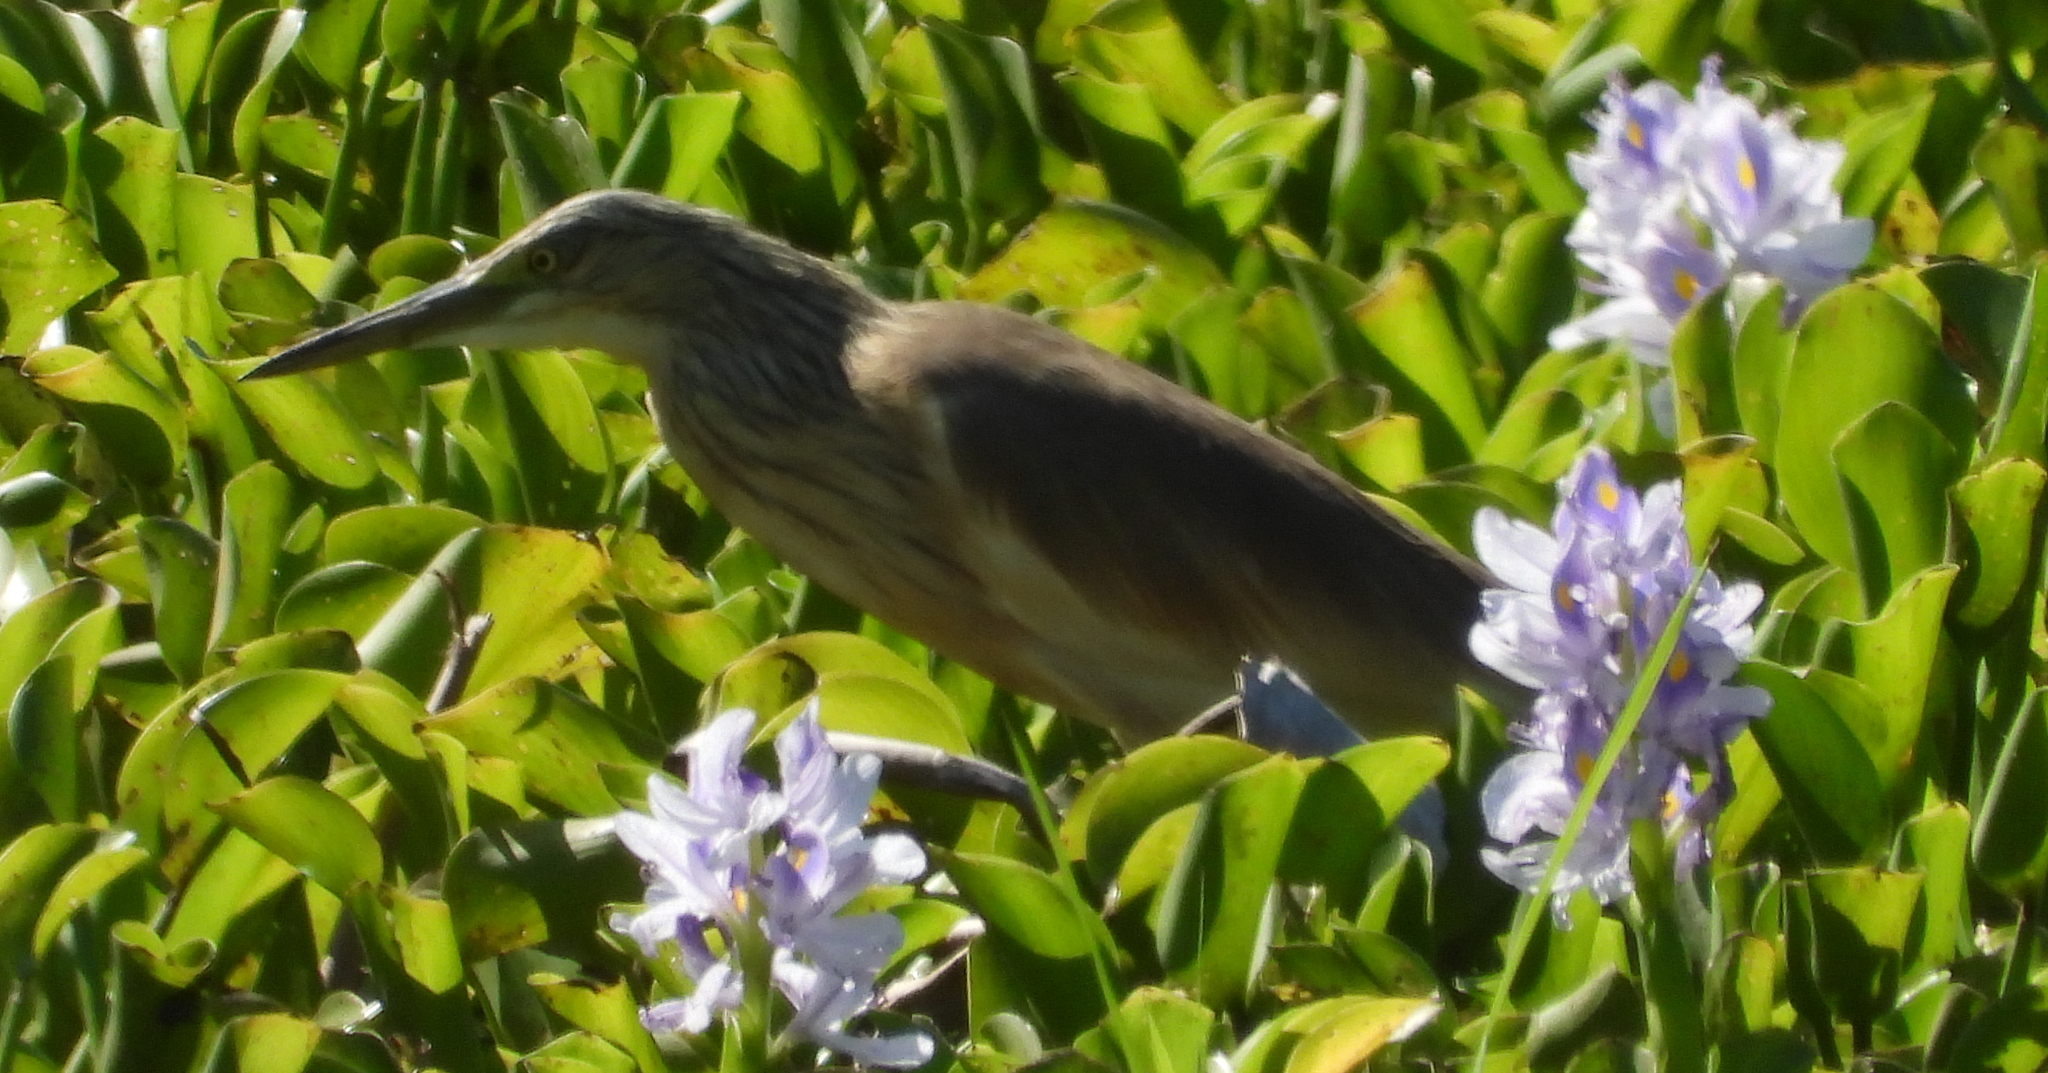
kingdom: Animalia
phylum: Chordata
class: Aves
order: Pelecaniformes
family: Ardeidae
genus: Ardeola
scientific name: Ardeola ralloides
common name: Squacco heron
